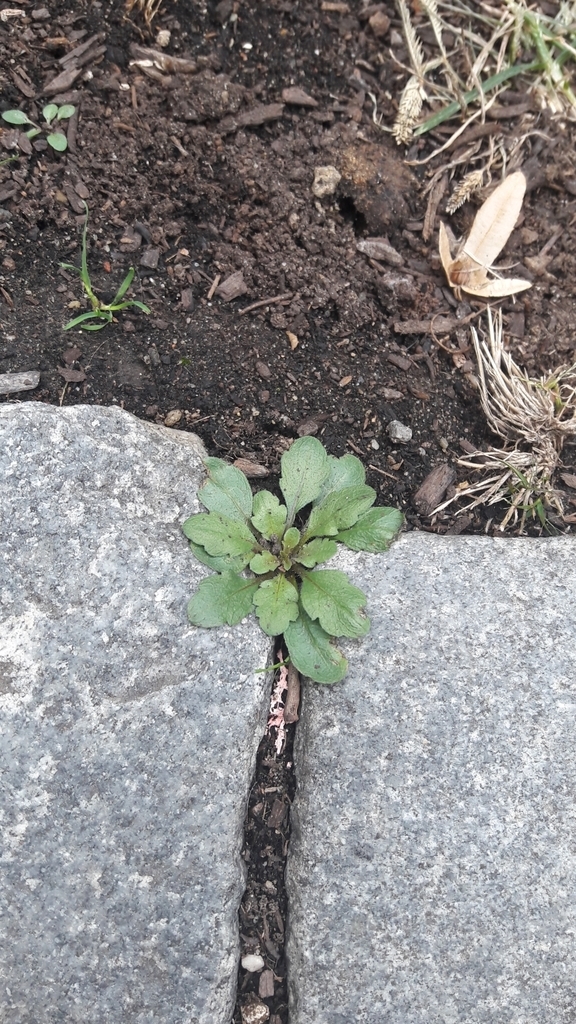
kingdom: Plantae
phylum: Tracheophyta
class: Magnoliopsida
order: Asterales
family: Asteraceae
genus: Erigeron
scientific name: Erigeron canadensis
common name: Canadian fleabane
